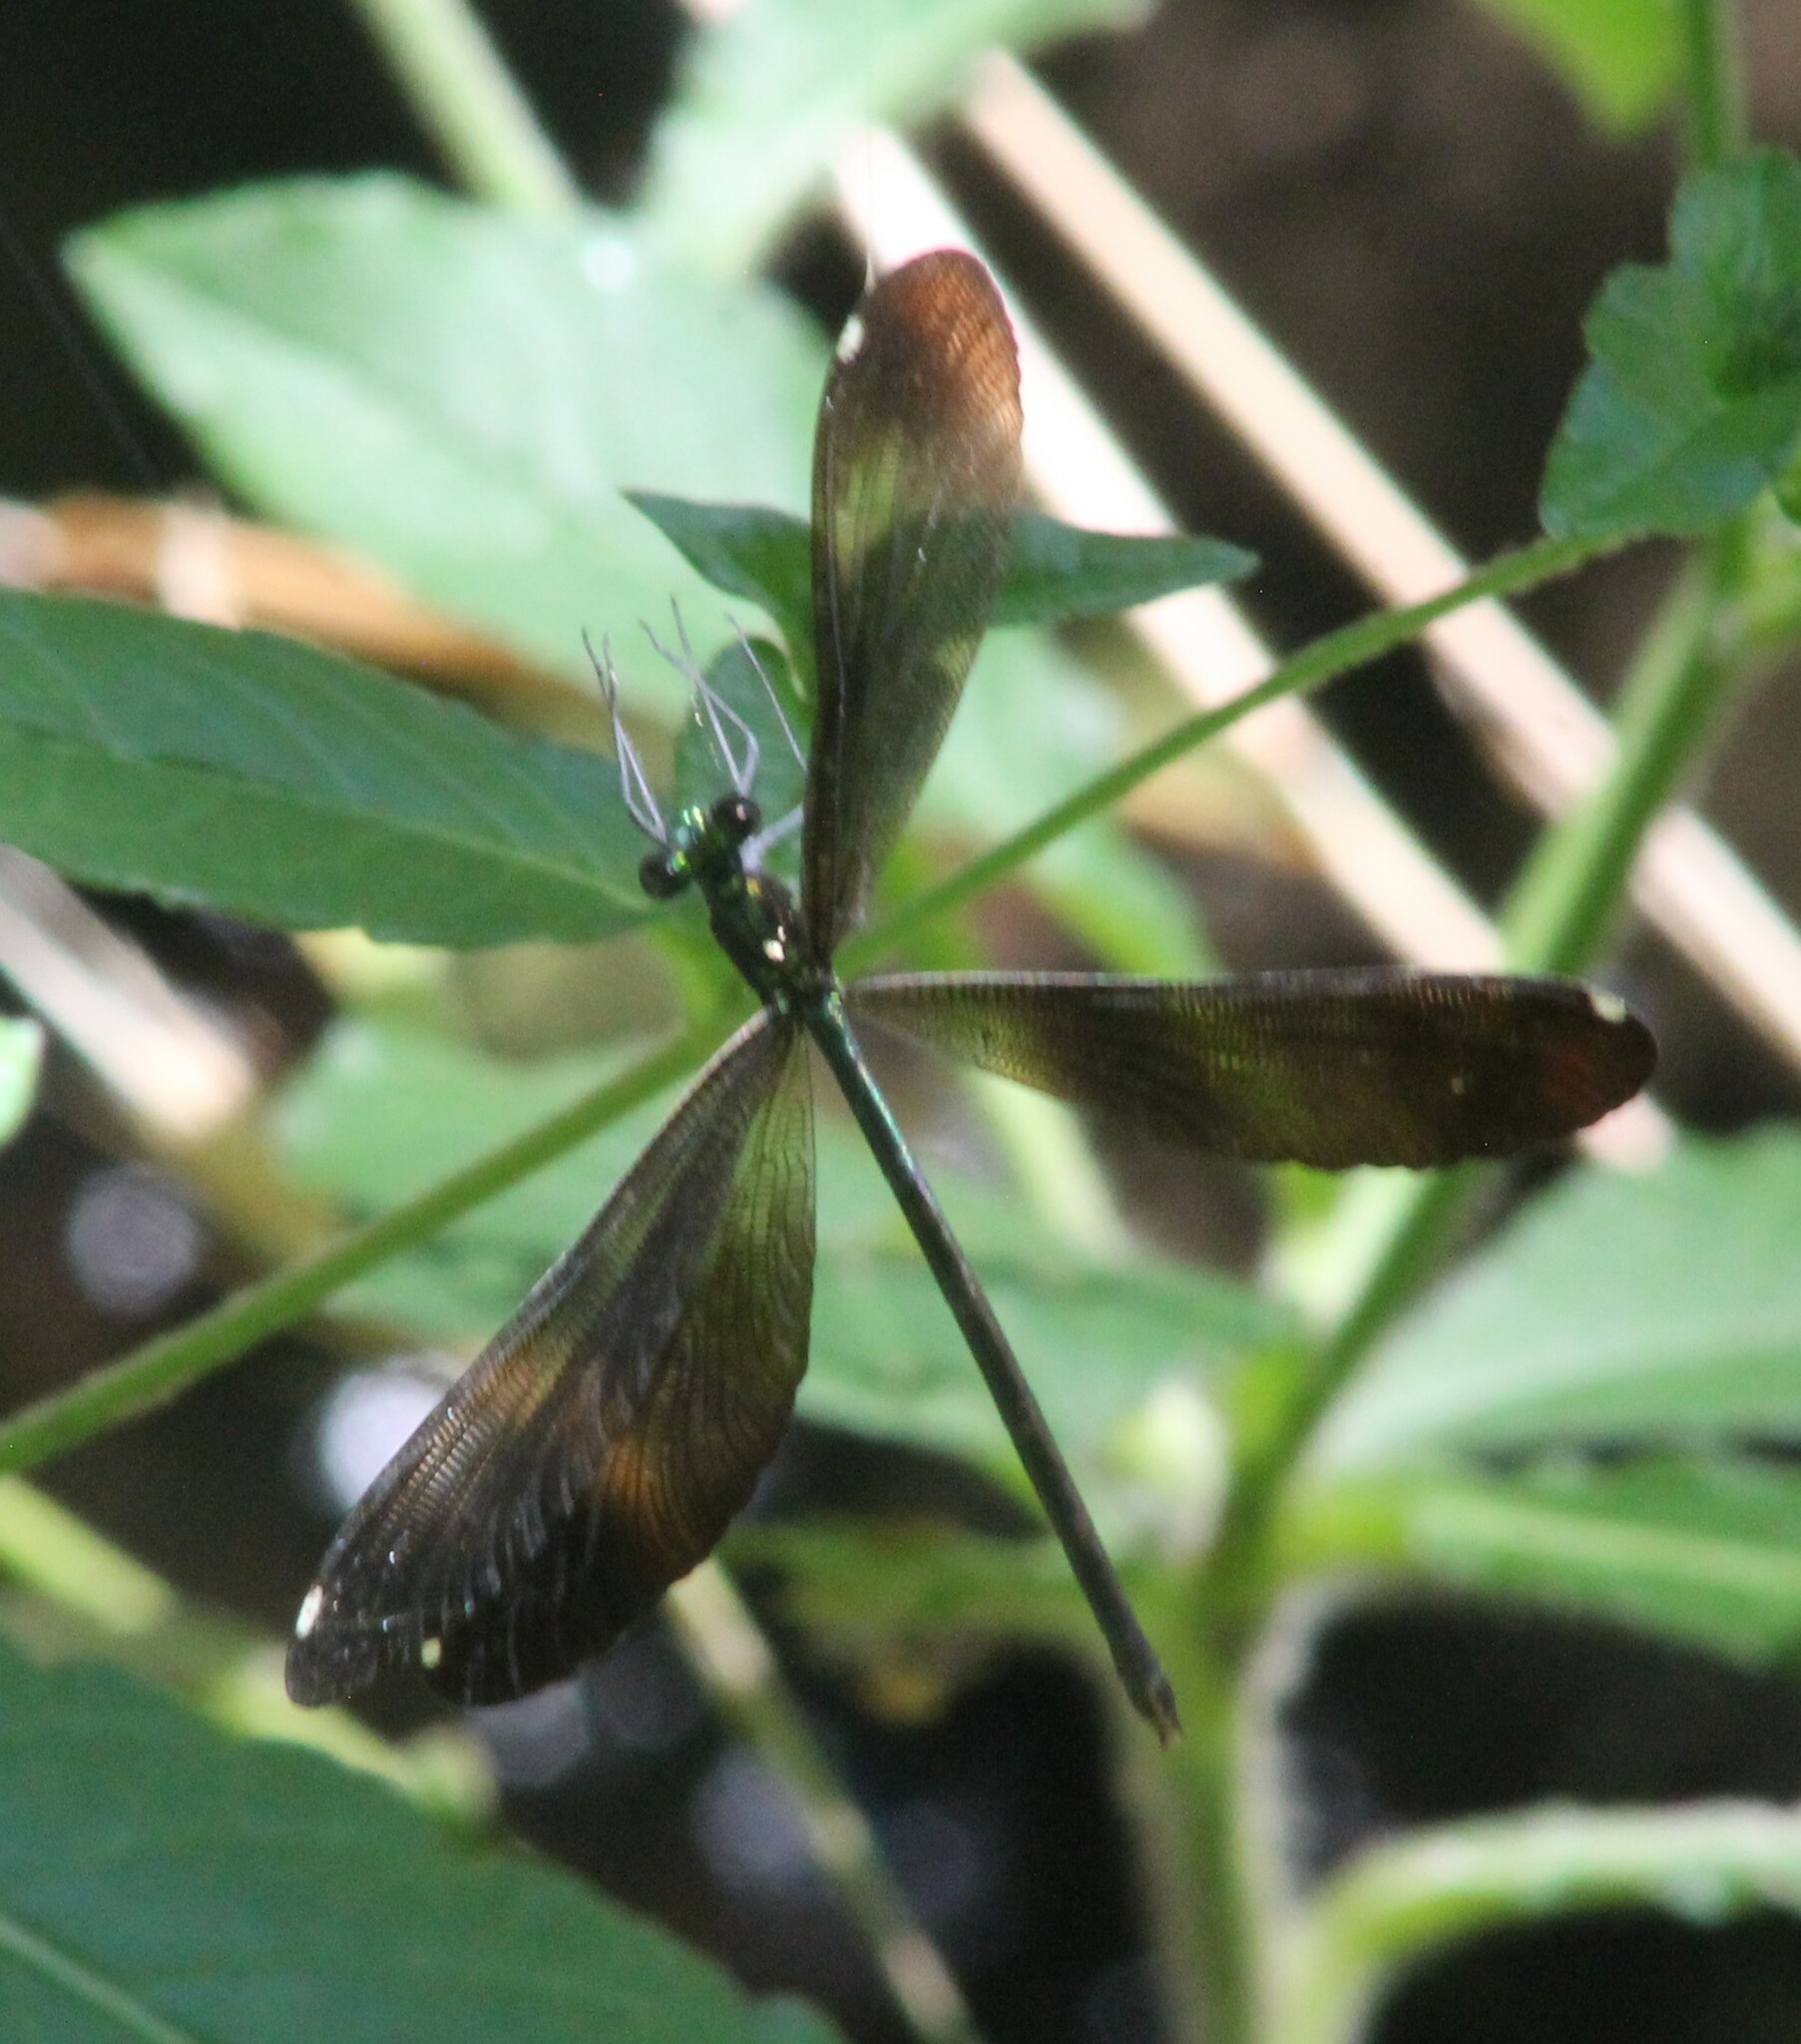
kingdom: Animalia
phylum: Arthropoda
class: Insecta
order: Odonata
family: Calopterygidae
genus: Calopteryx
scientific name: Calopteryx maculata
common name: Ebony jewelwing
